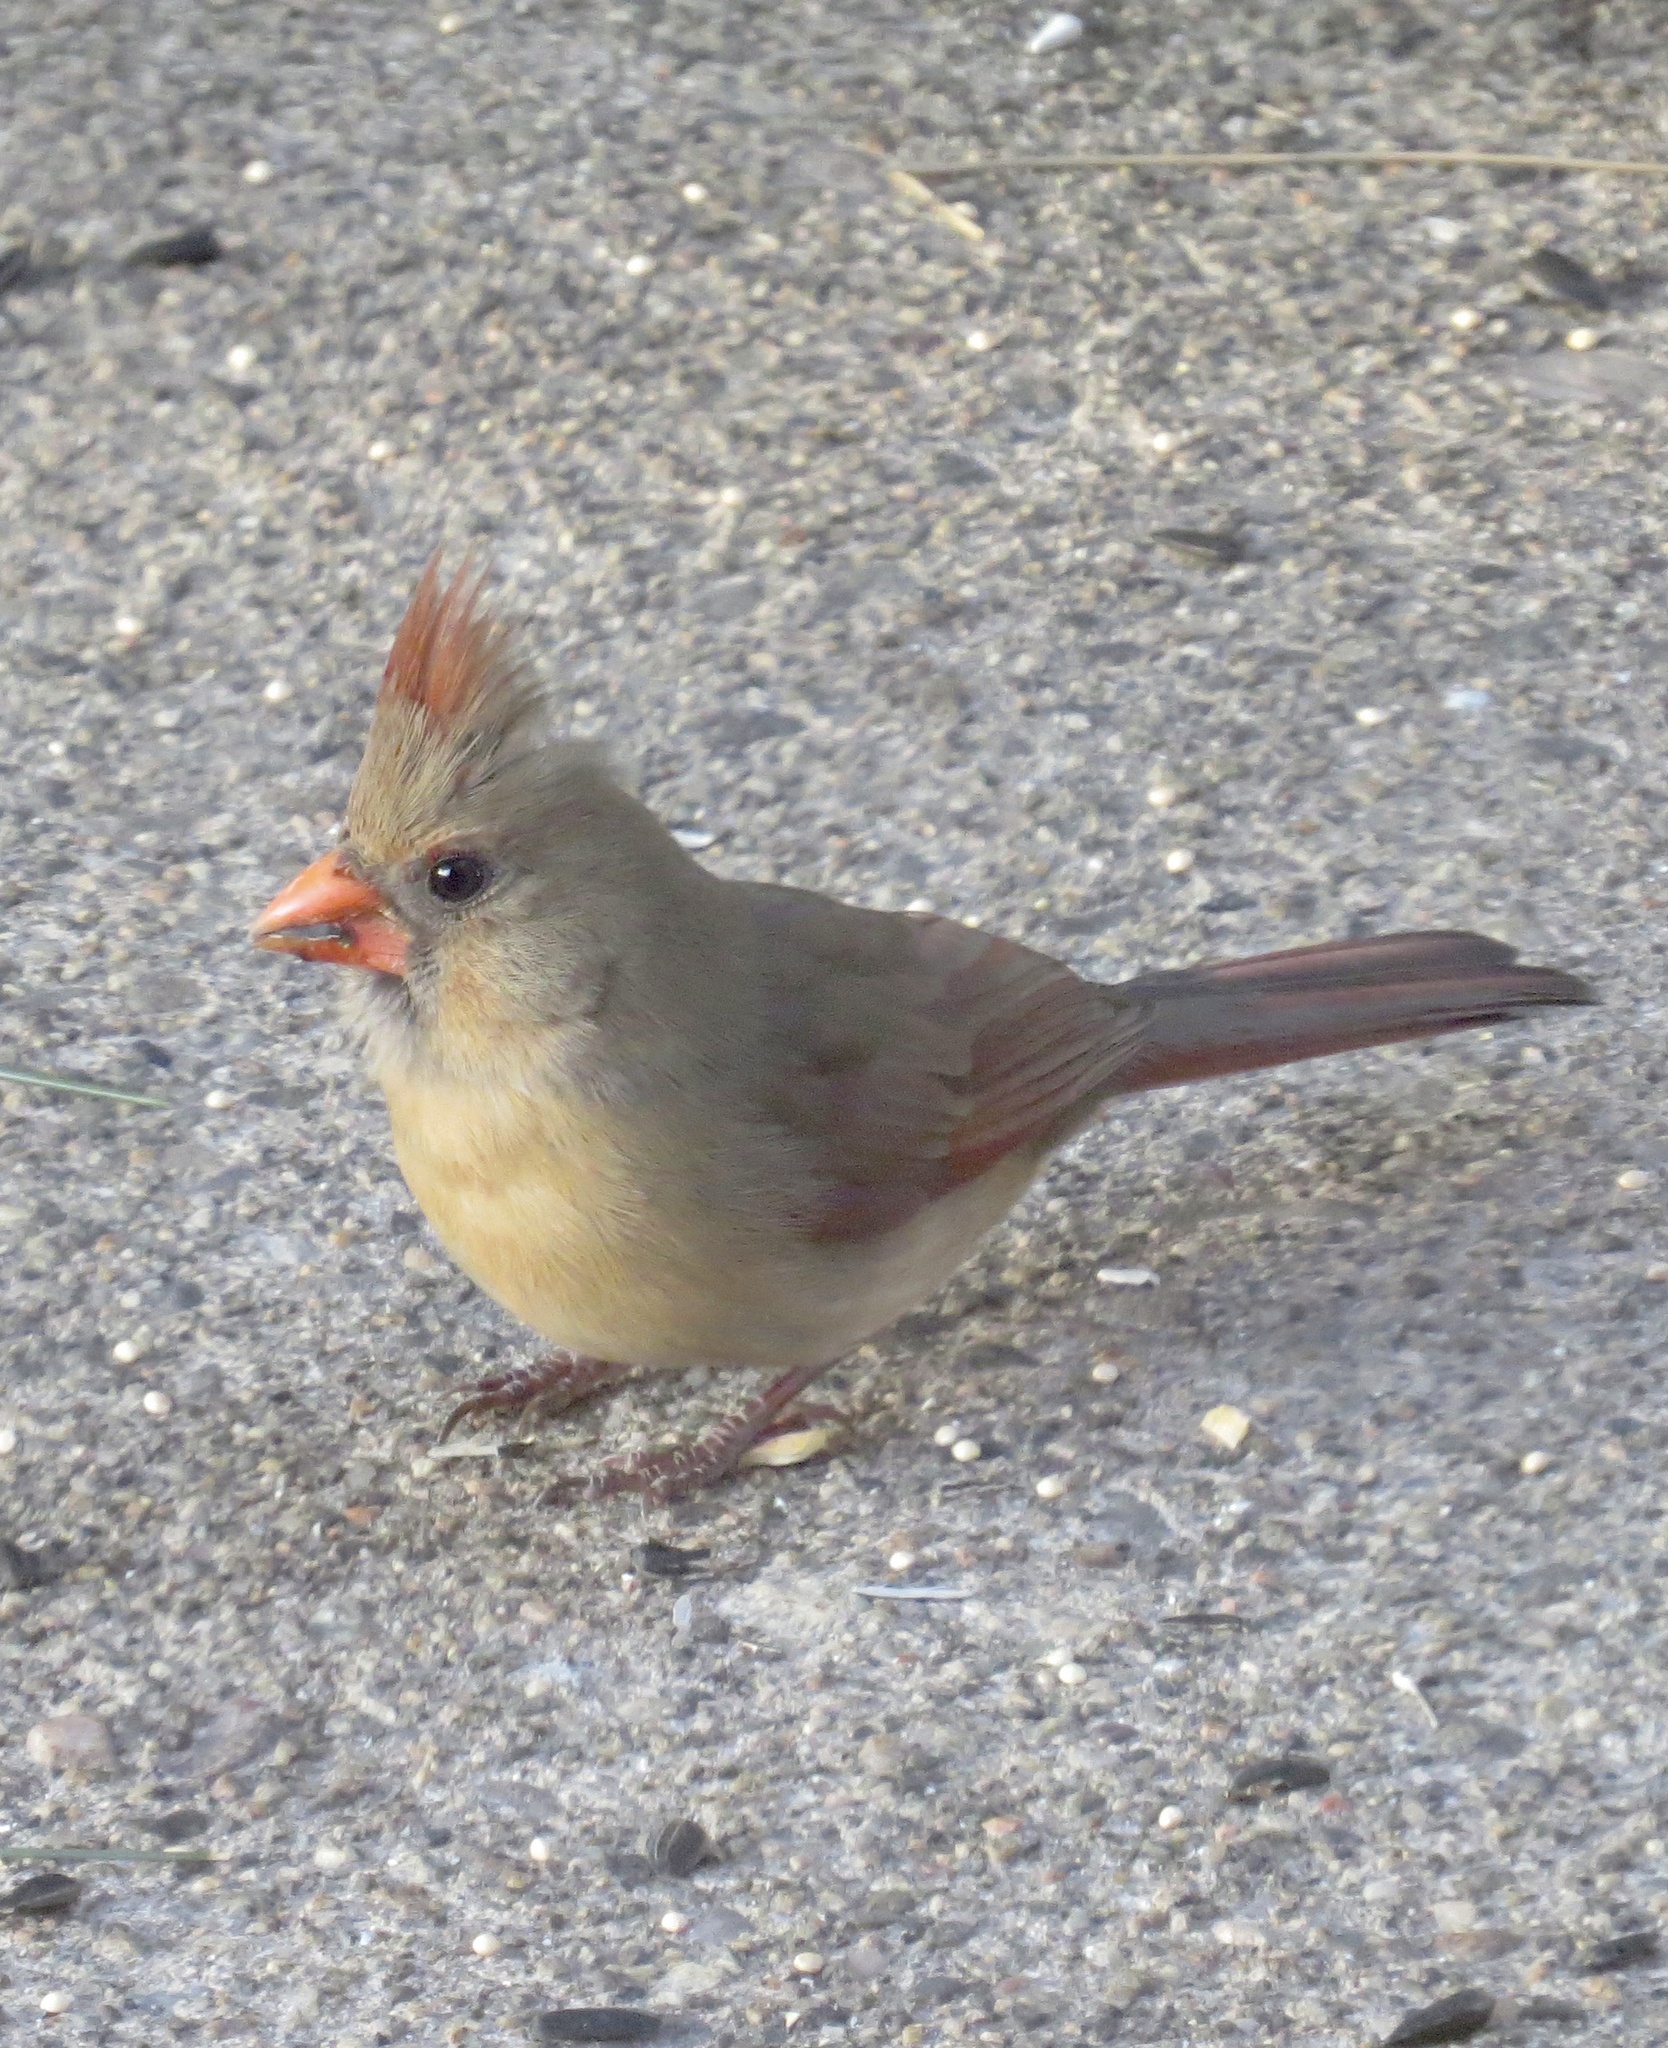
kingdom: Animalia
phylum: Chordata
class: Aves
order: Passeriformes
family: Cardinalidae
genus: Cardinalis
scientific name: Cardinalis cardinalis
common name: Northern cardinal
